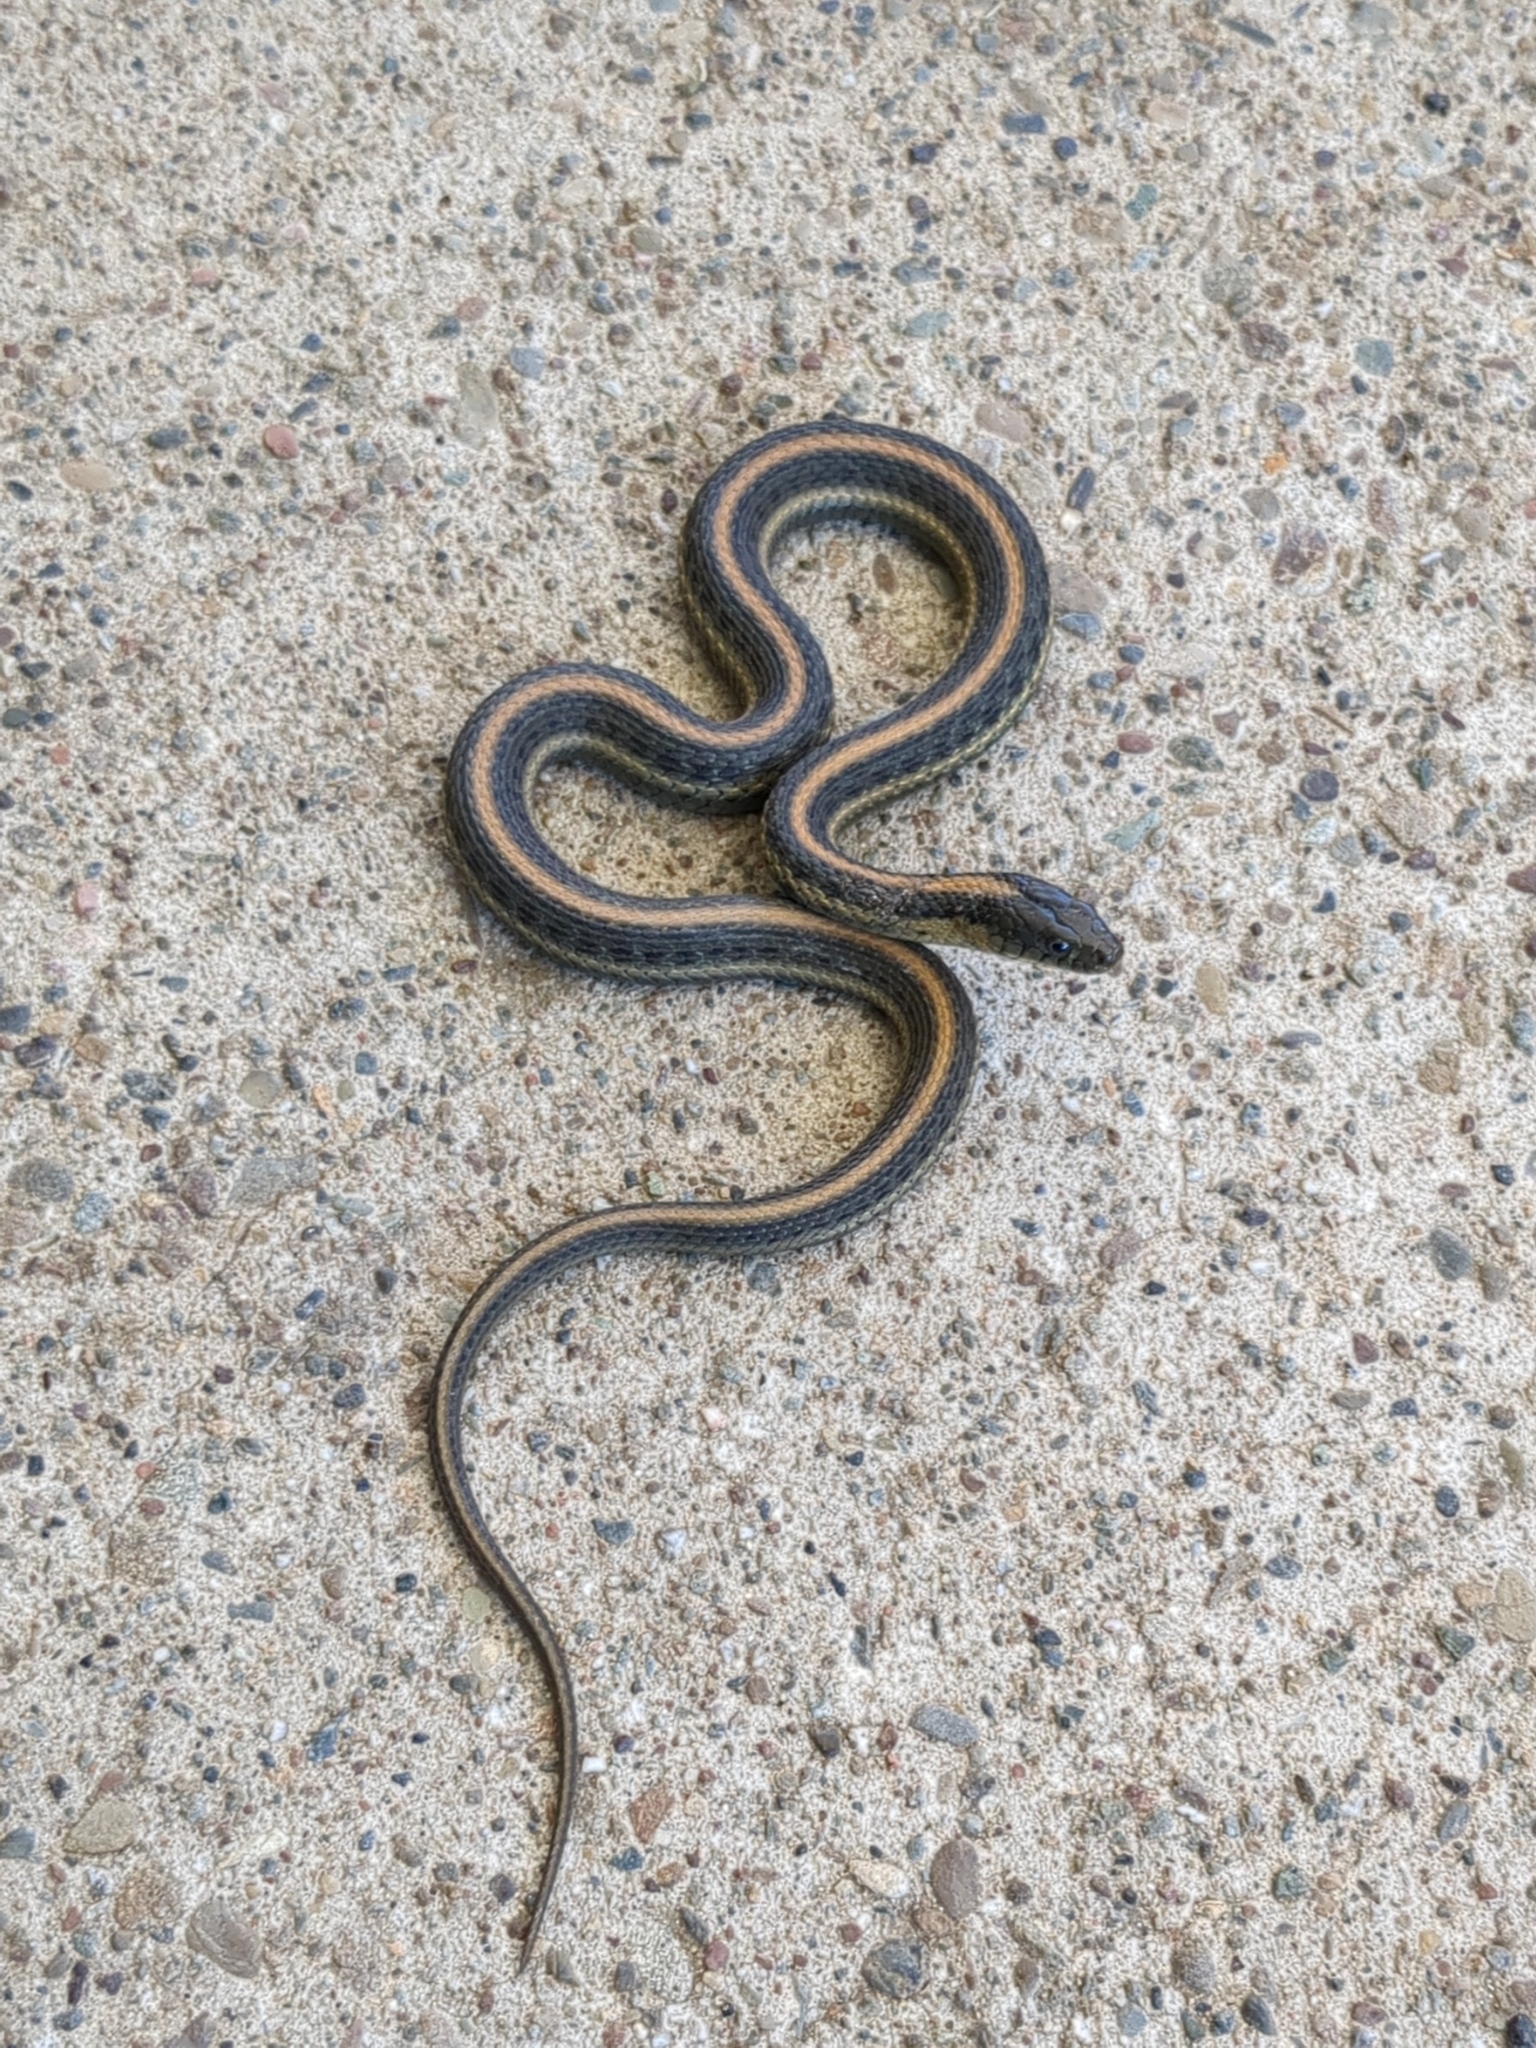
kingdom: Animalia
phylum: Chordata
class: Squamata
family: Colubridae
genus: Thamnophis
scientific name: Thamnophis atratus
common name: Pacific coast aquatic garter snake
